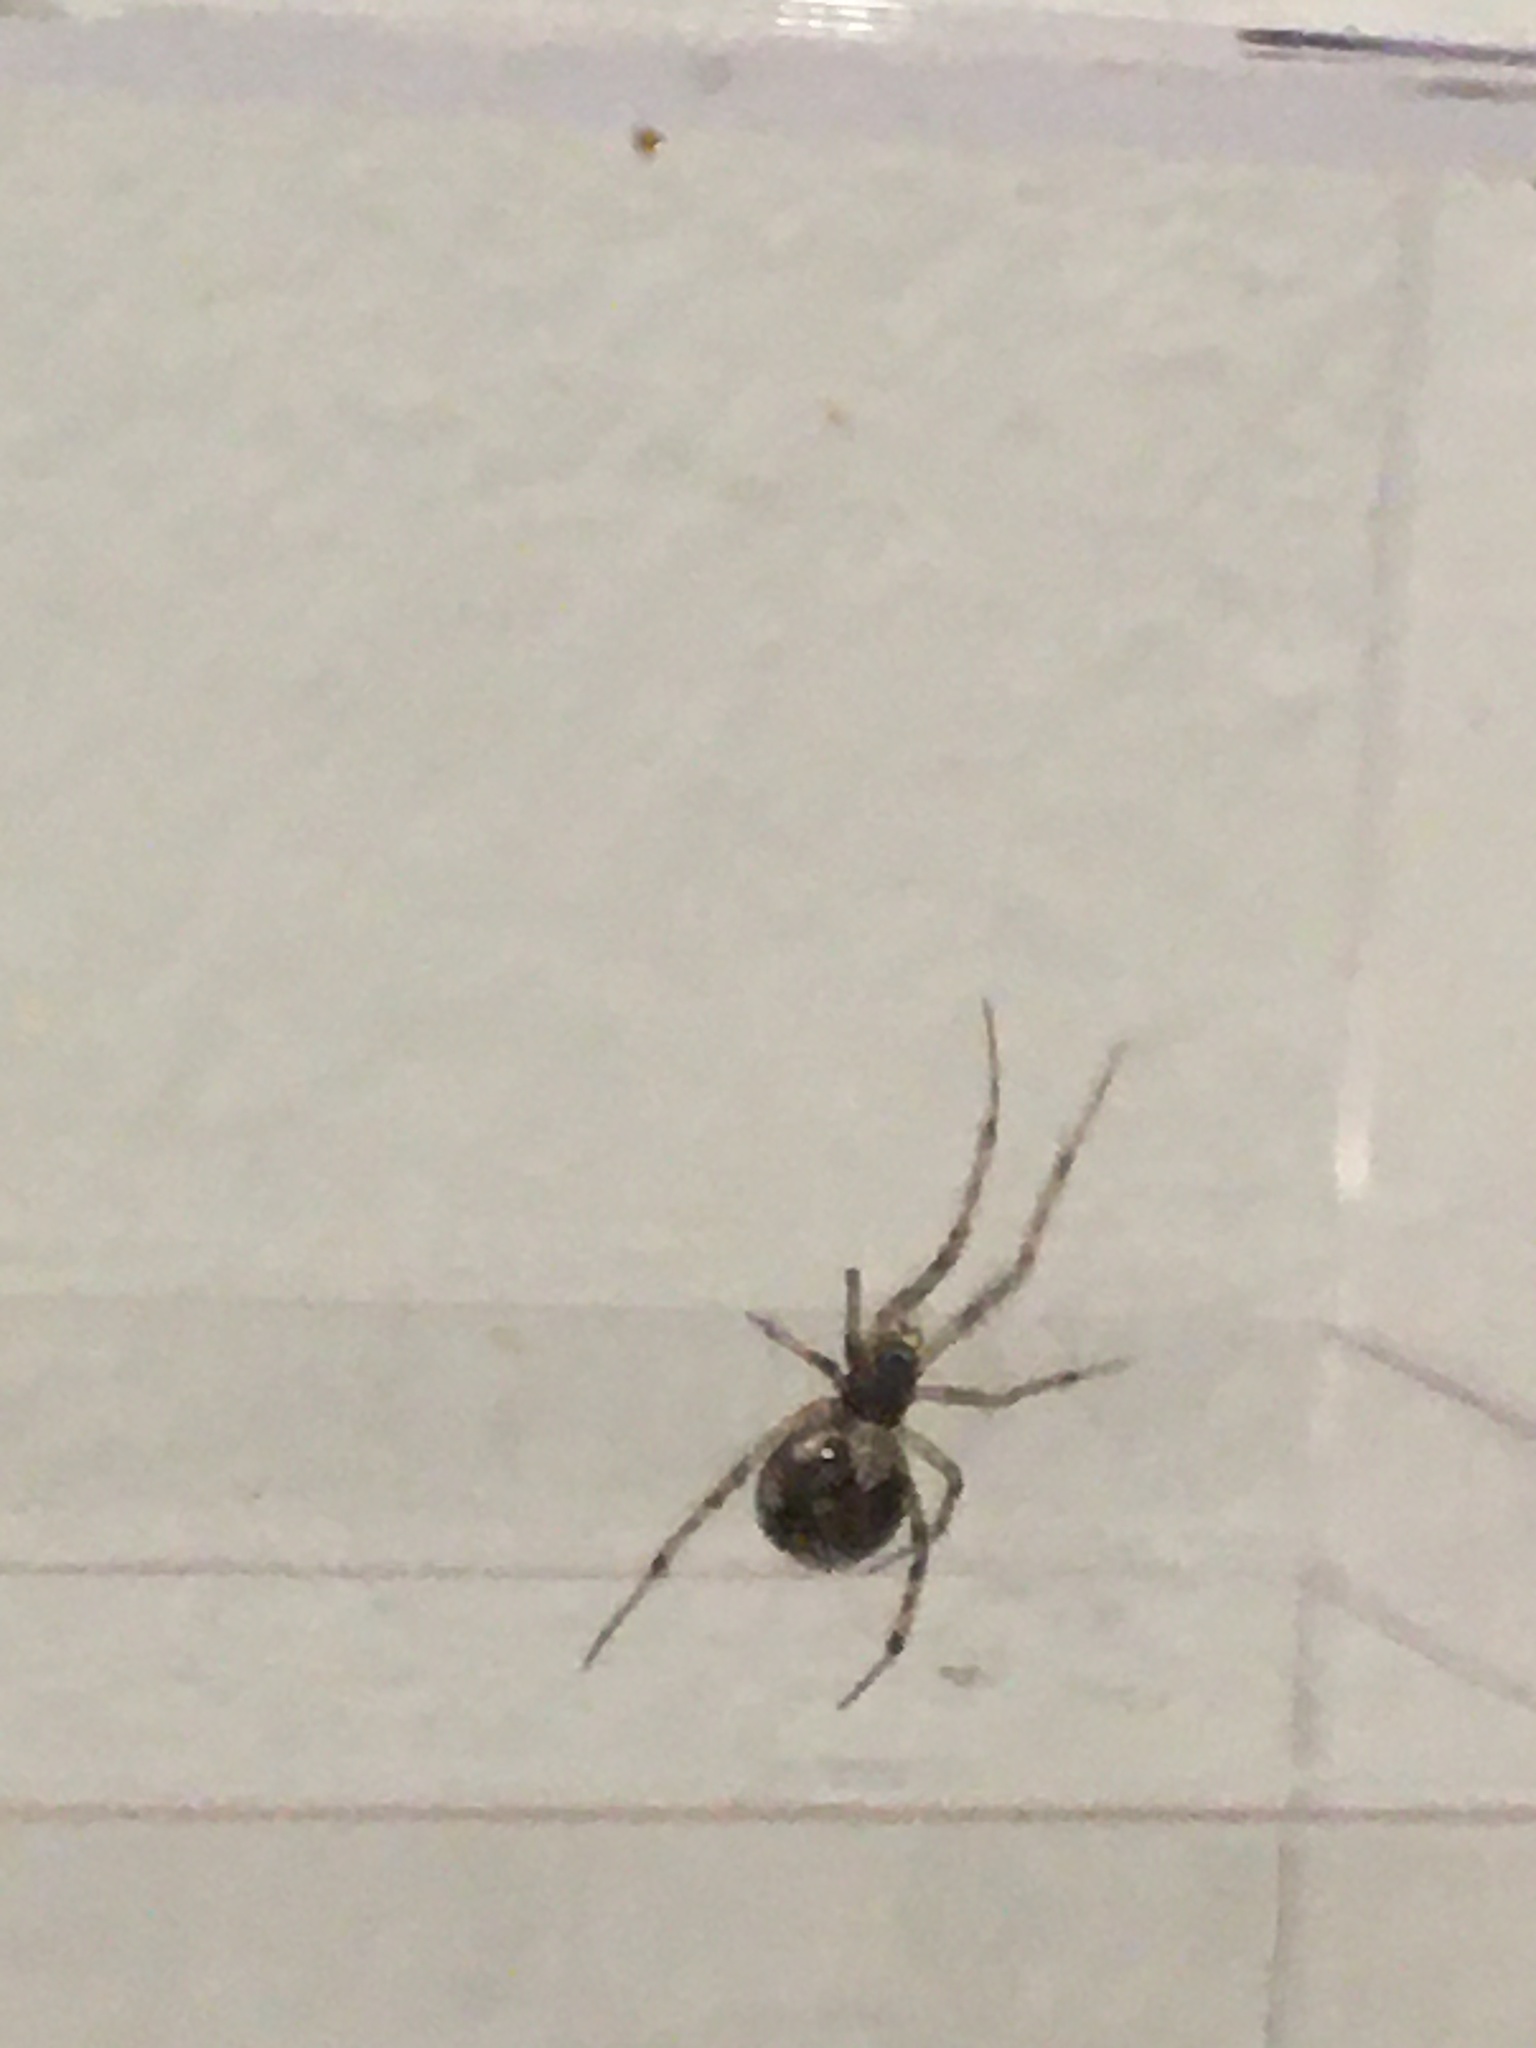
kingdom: Animalia
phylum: Arthropoda
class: Arachnida
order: Araneae
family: Theridiidae
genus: Steatoda
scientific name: Steatoda triangulosa
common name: Triangulate bud spider
